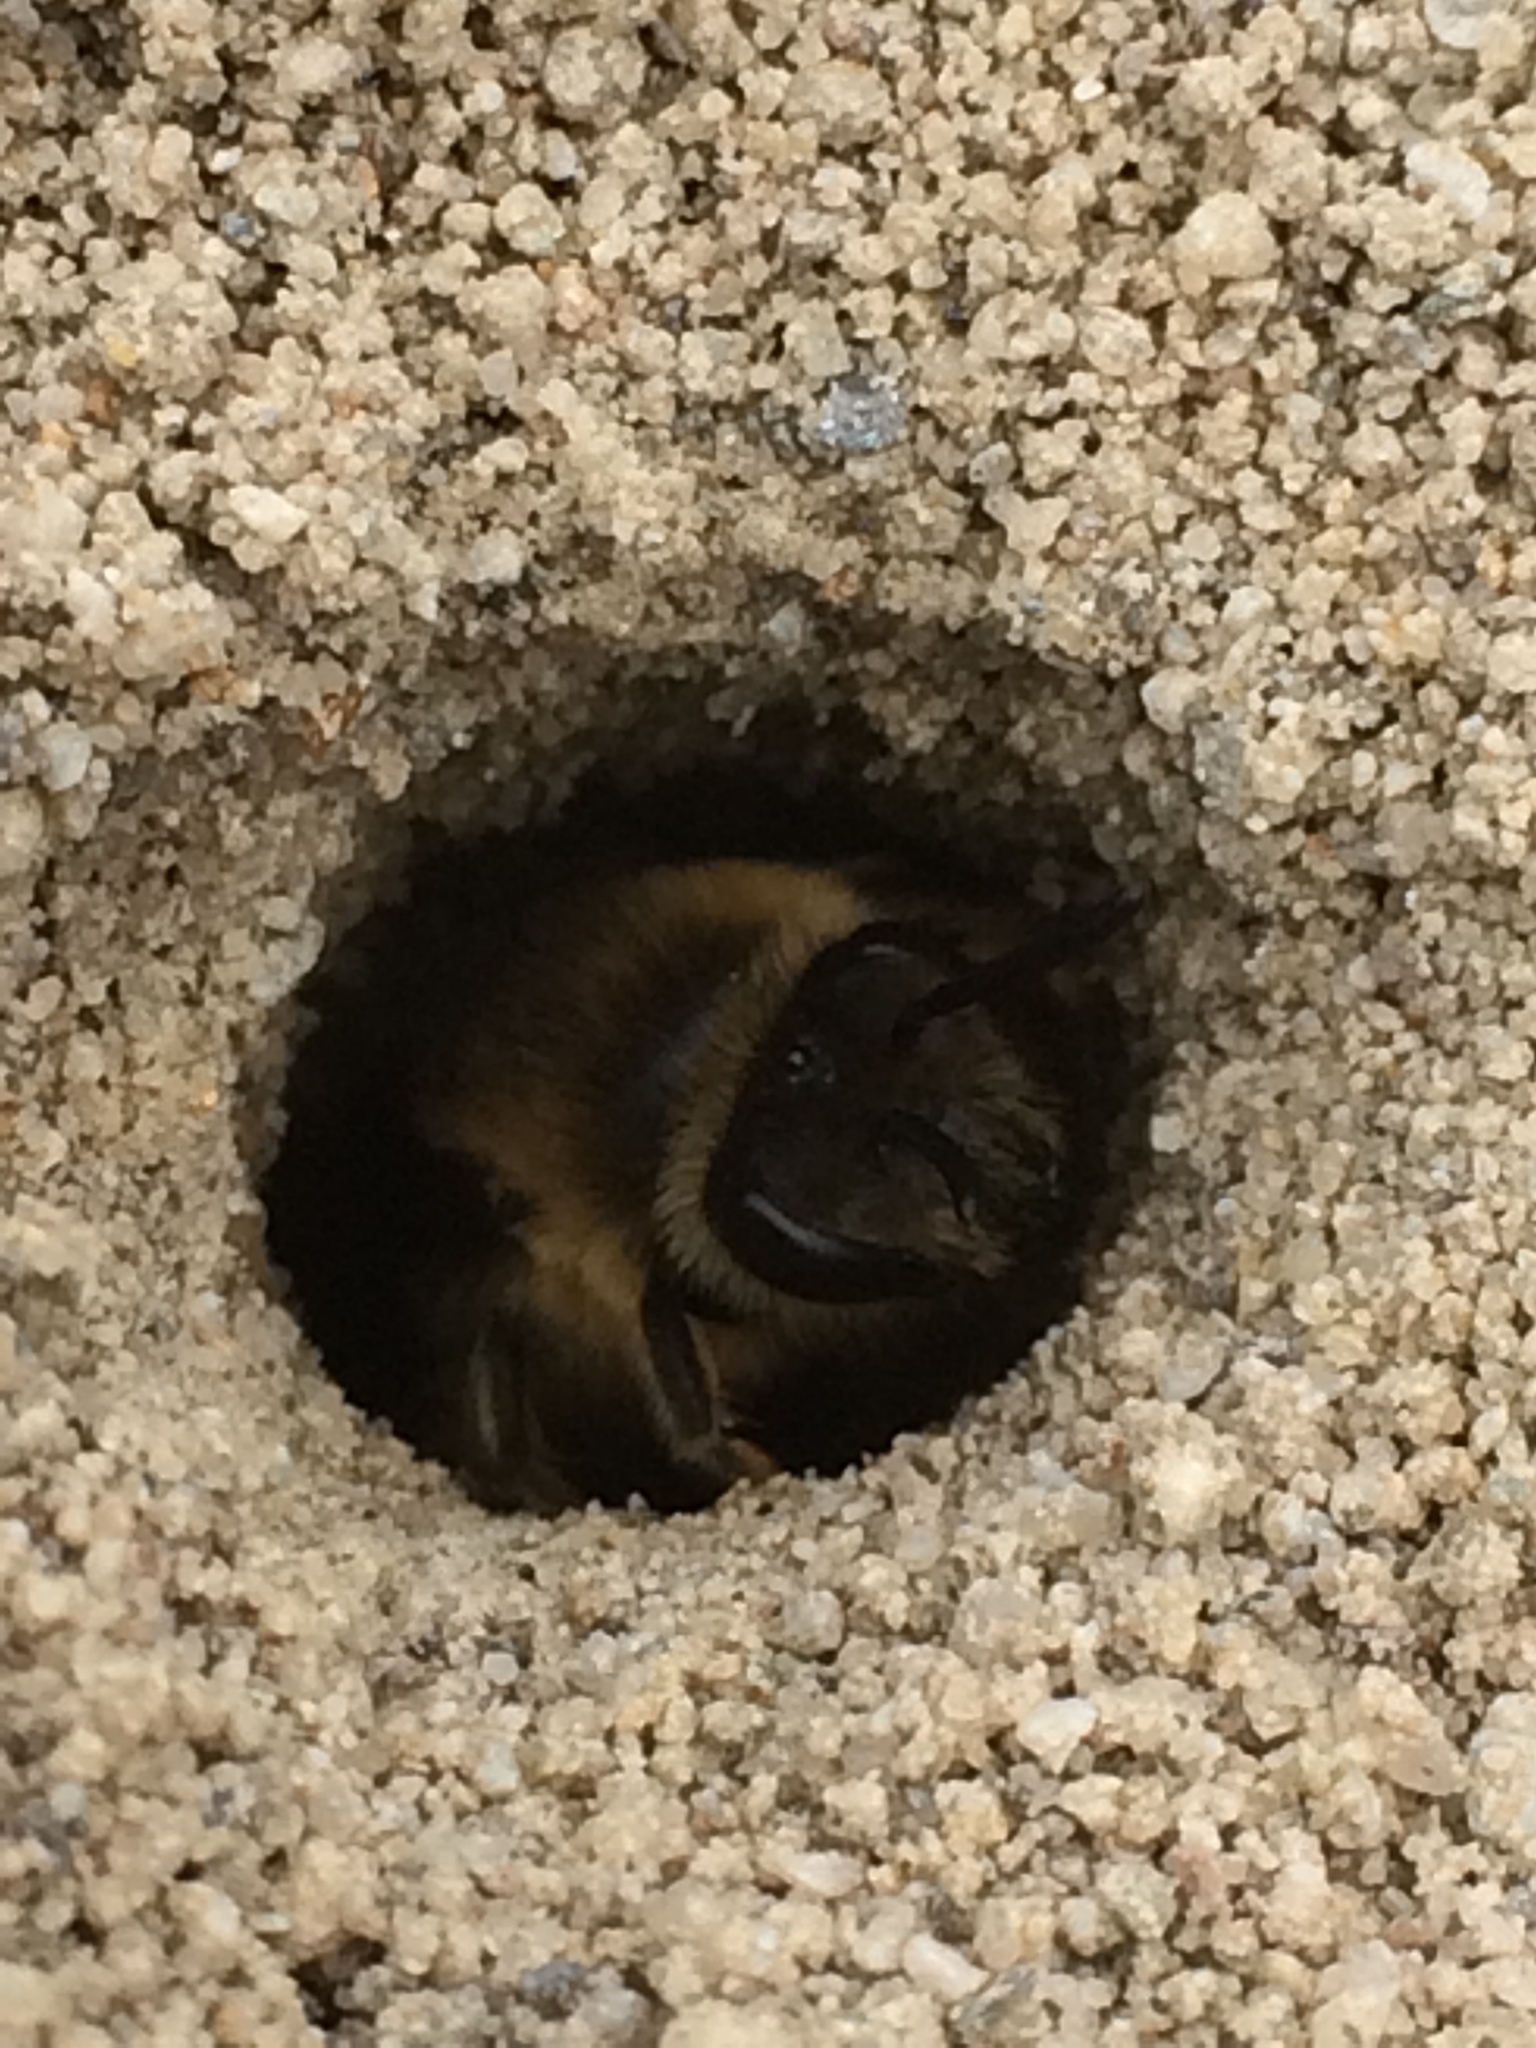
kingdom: Animalia
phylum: Arthropoda
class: Insecta
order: Hymenoptera
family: Colletidae
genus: Colletes
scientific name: Colletes inaequalis
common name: Unequal cellophane bee
